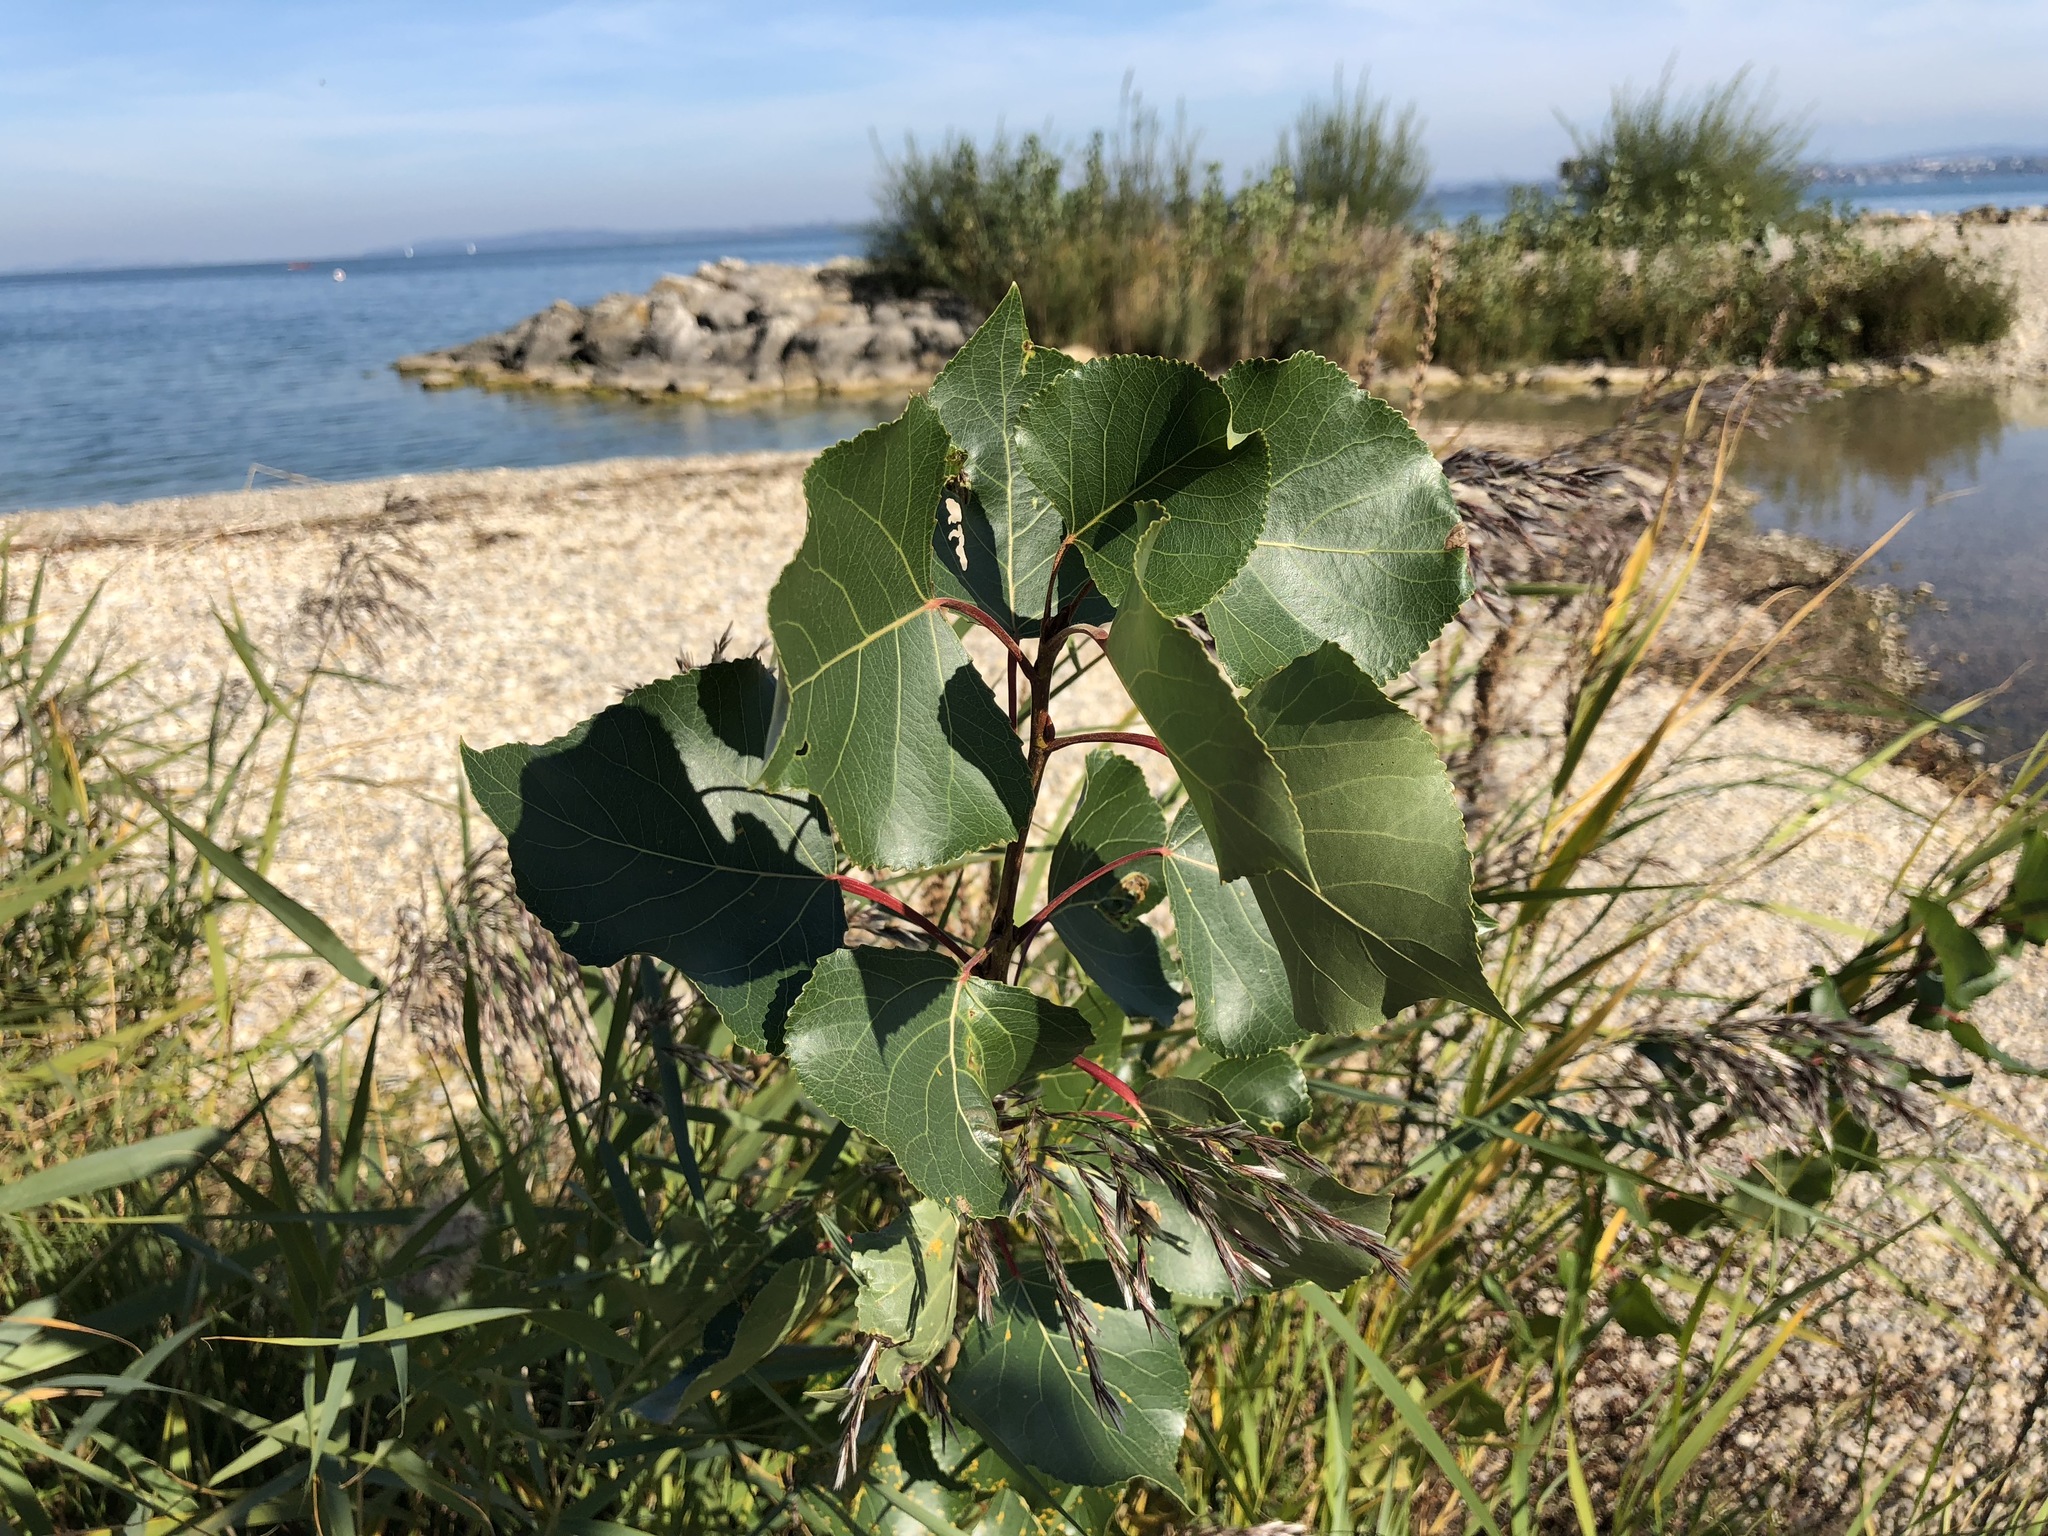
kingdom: Plantae
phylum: Tracheophyta
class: Magnoliopsida
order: Malpighiales
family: Salicaceae
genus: Populus
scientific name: Populus nigra
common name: Black poplar
